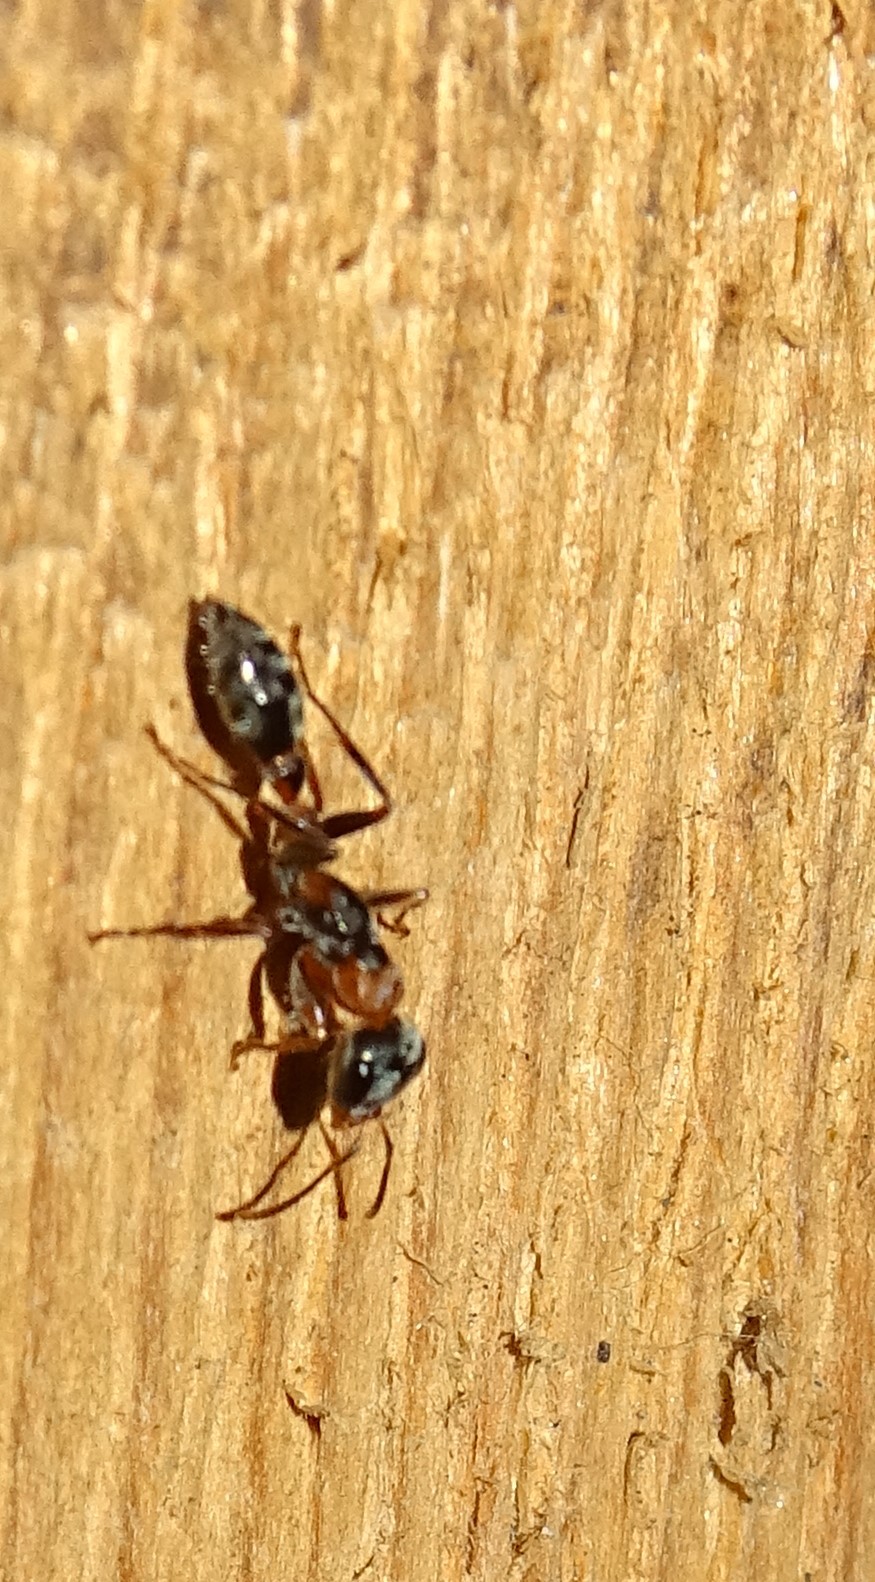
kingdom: Animalia
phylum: Arthropoda
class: Insecta
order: Hymenoptera
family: Formicidae
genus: Pseudomyrmex
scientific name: Pseudomyrmex gracilis
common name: Graceful twig ant
